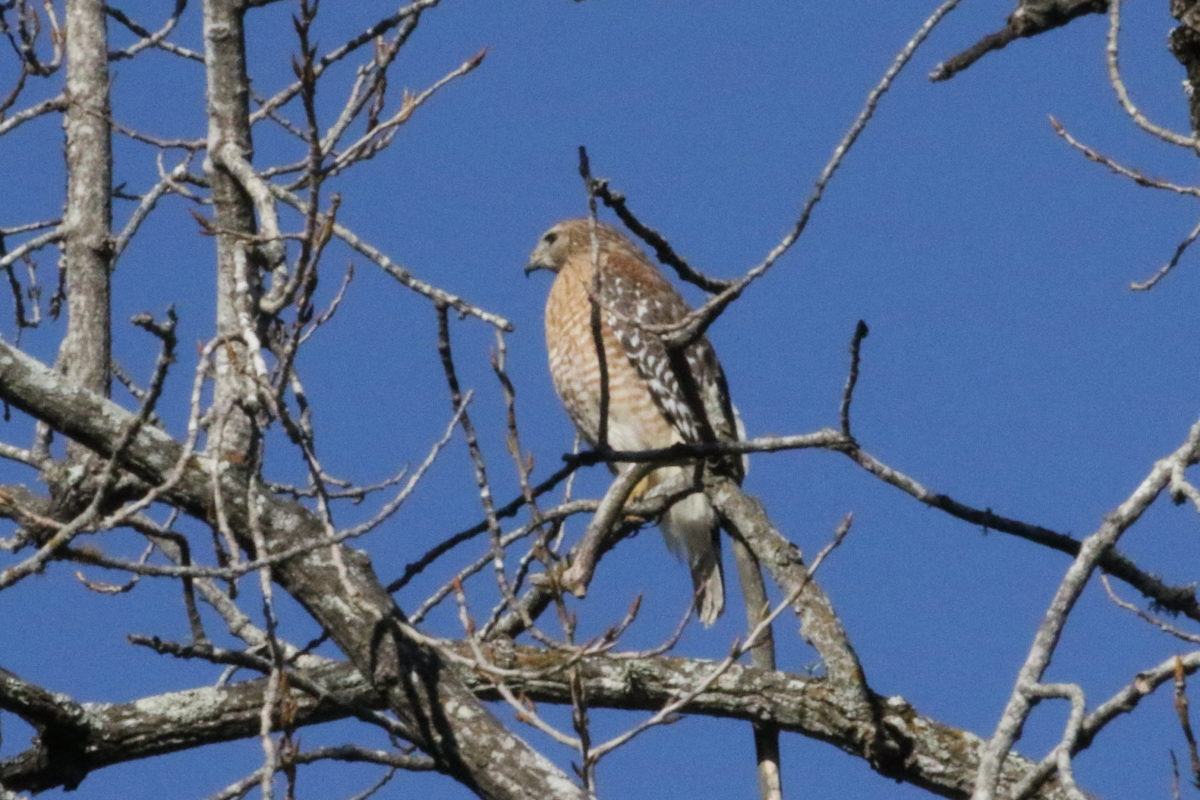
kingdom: Animalia
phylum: Chordata
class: Aves
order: Accipitriformes
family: Accipitridae
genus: Buteo
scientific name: Buteo lineatus
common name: Red-shouldered hawk
